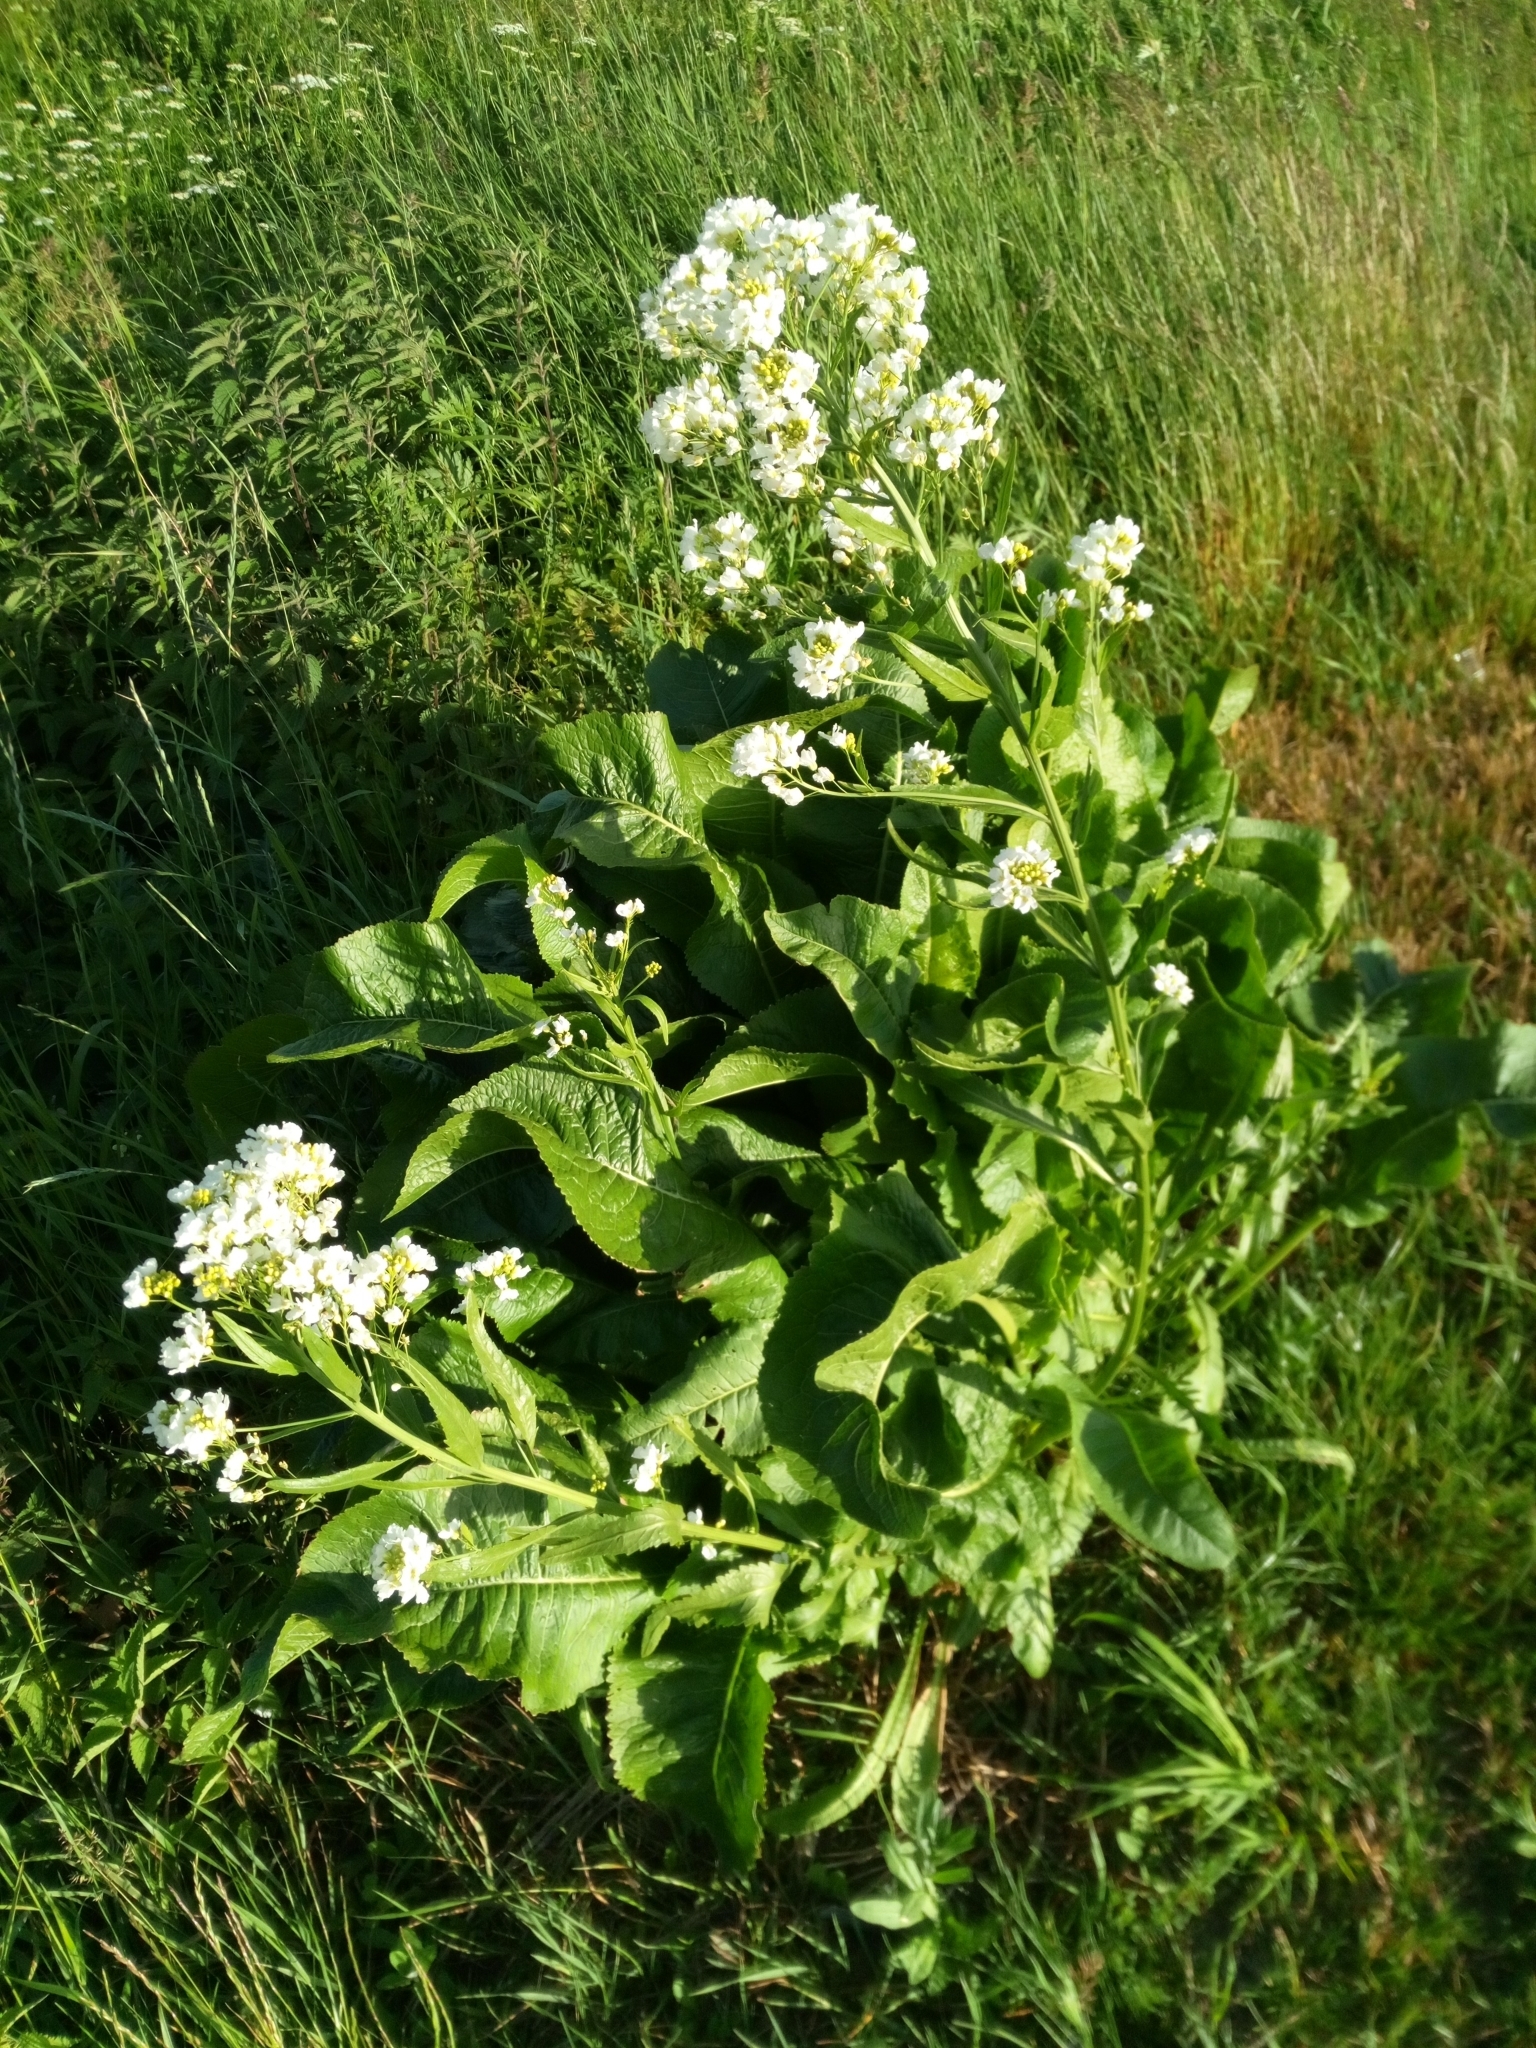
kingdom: Plantae
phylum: Tracheophyta
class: Magnoliopsida
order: Brassicales
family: Brassicaceae
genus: Armoracia
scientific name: Armoracia rusticana
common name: Horseradish
